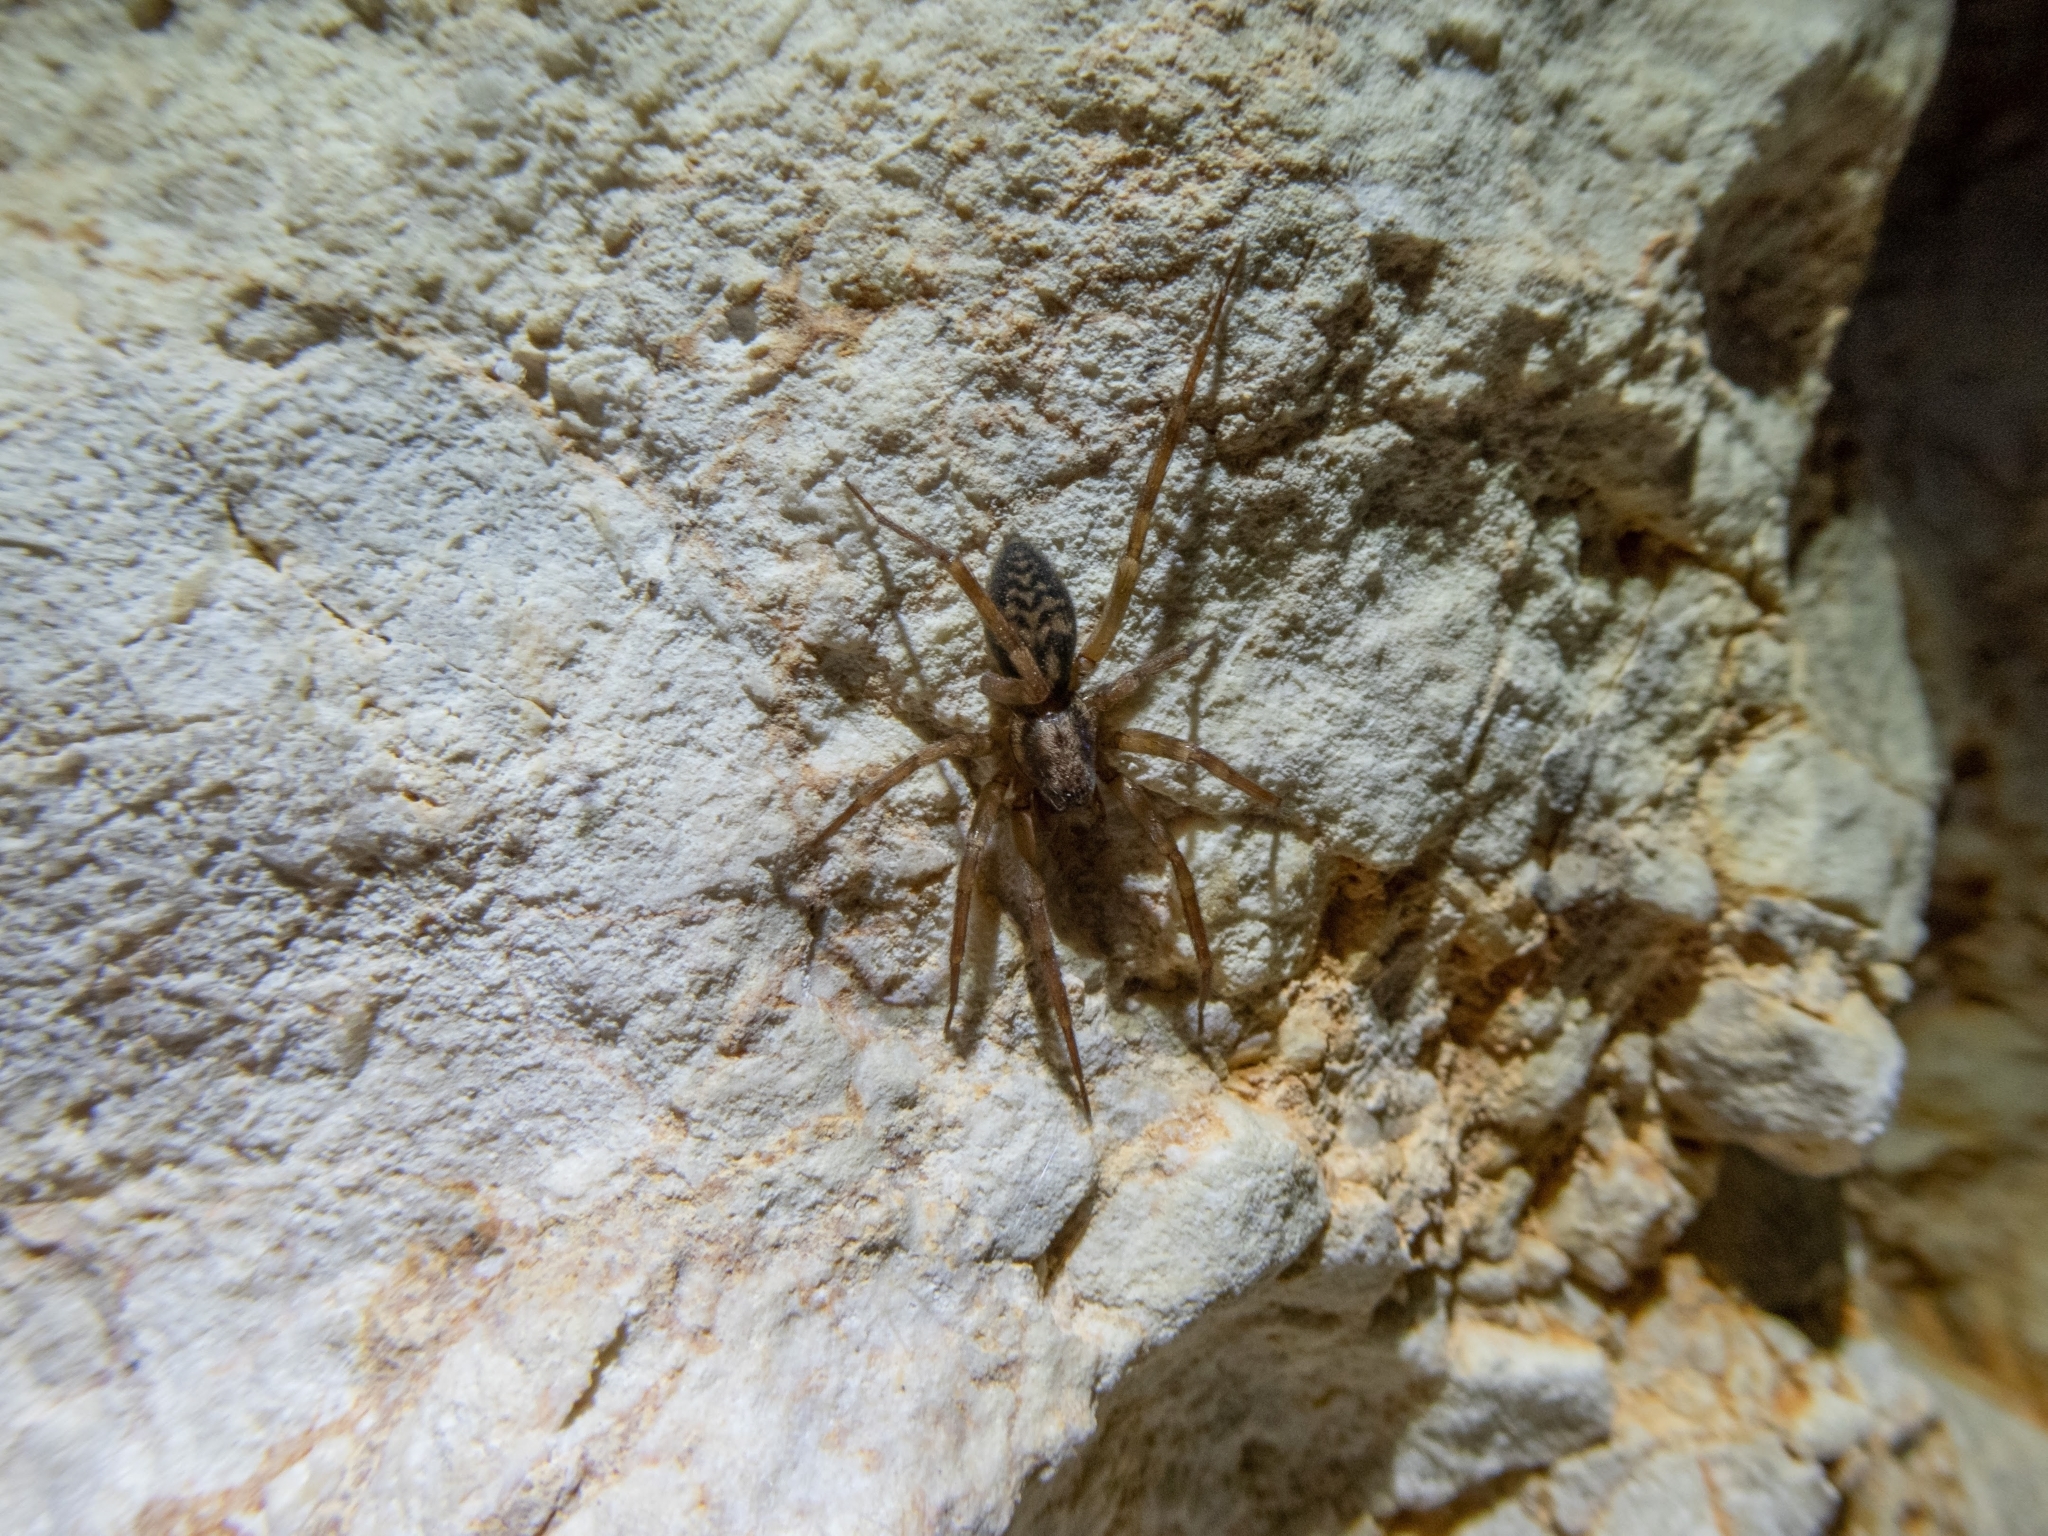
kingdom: Animalia
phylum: Arthropoda
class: Arachnida
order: Araneae
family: Liocranidae
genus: Liocranum
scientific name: Liocranum rupicola
